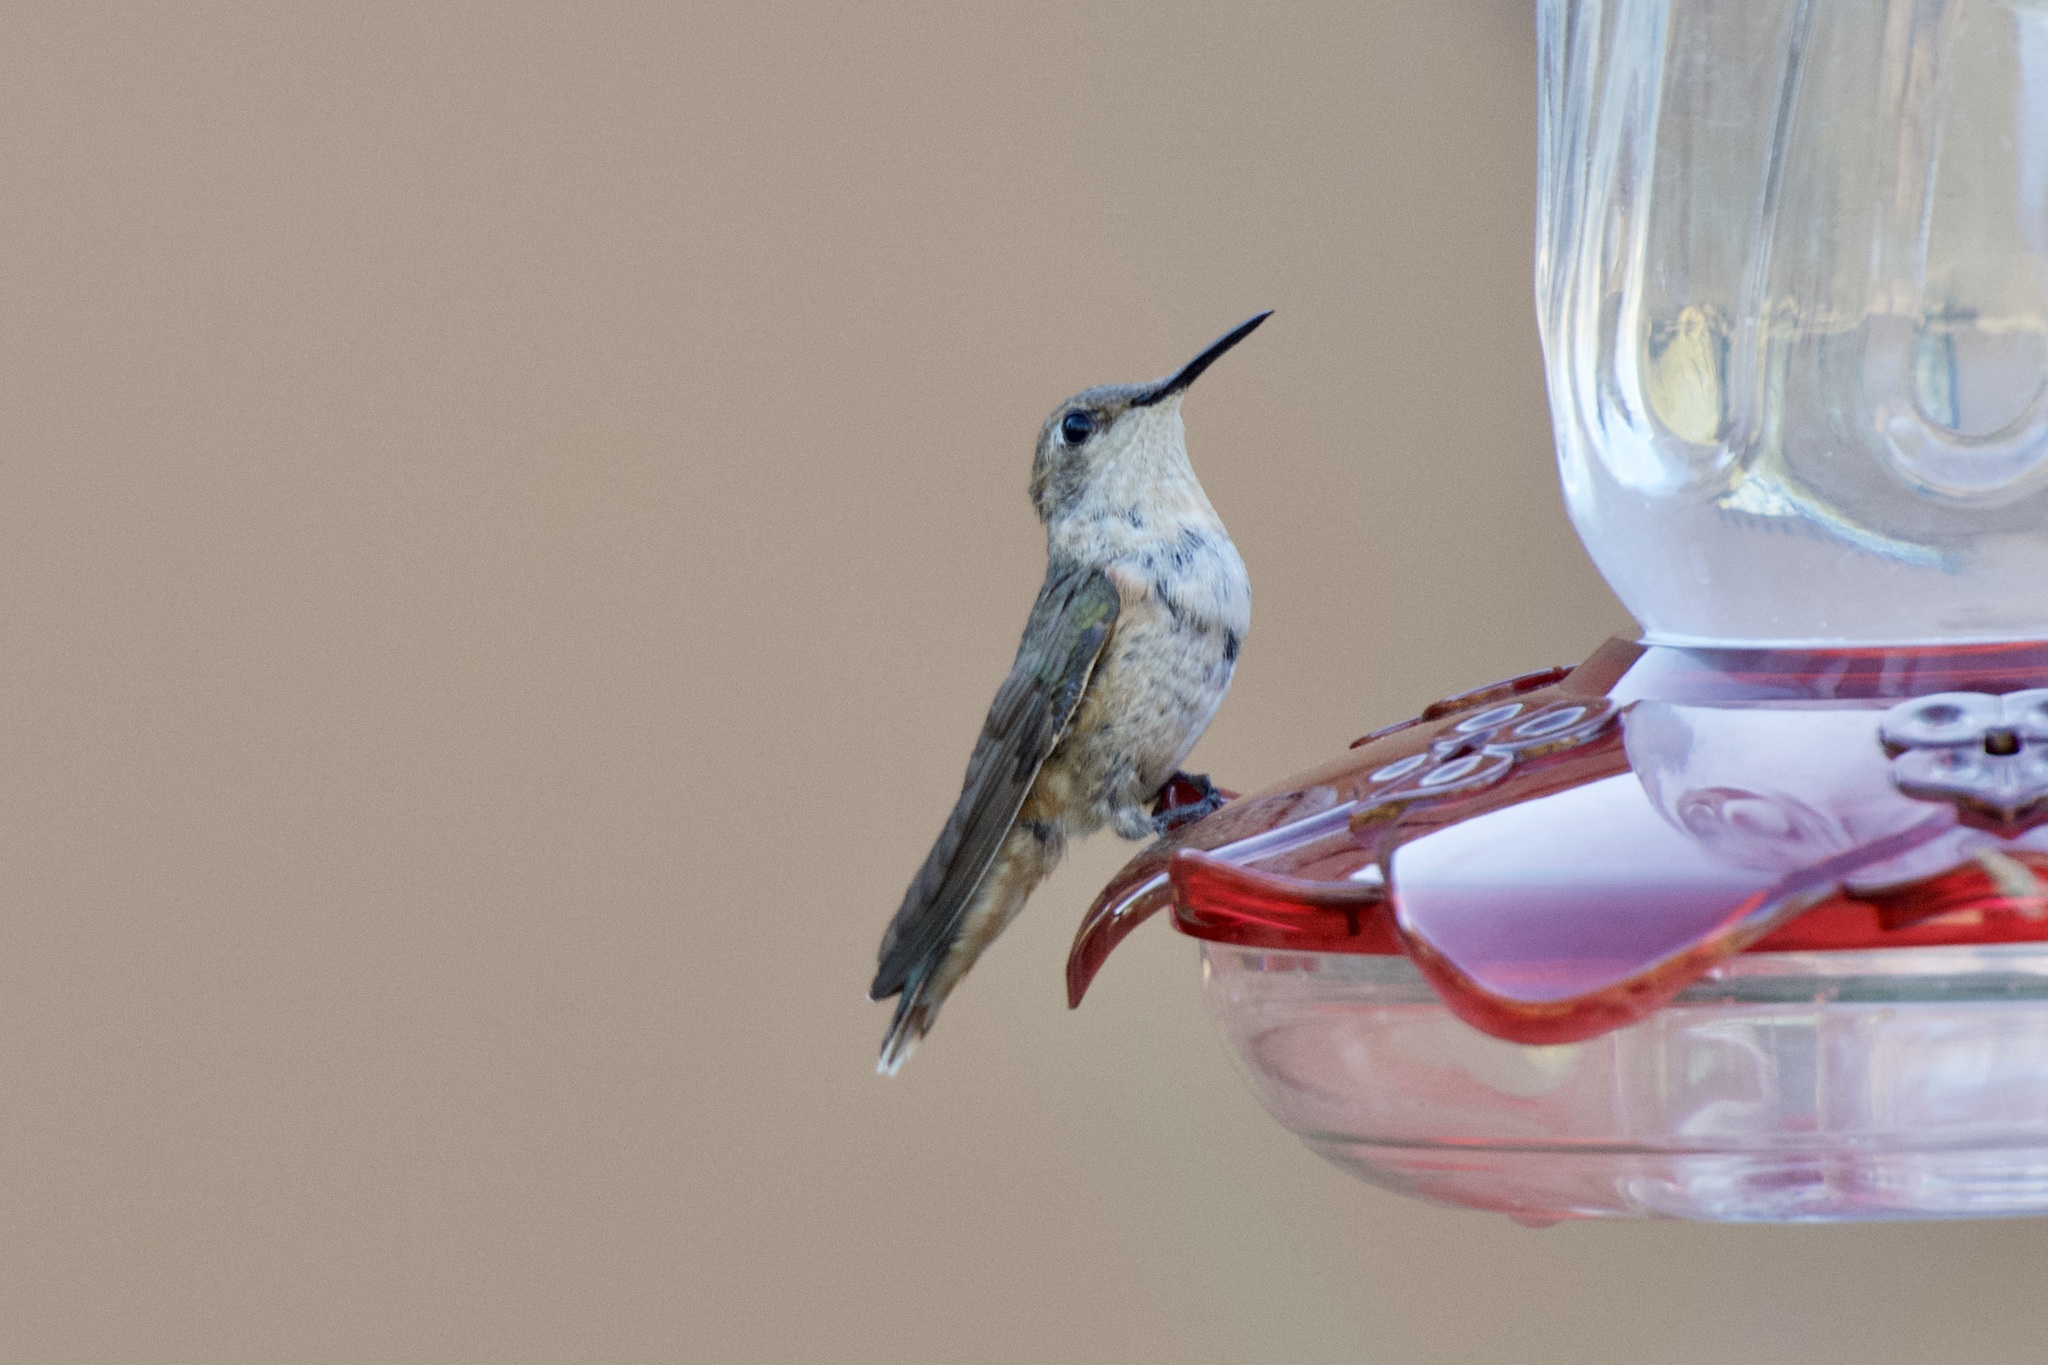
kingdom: Animalia
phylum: Chordata
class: Aves
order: Apodiformes
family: Trochilidae
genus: Selasphorus
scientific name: Selasphorus platycercus
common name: Broad-tailed hummingbird
